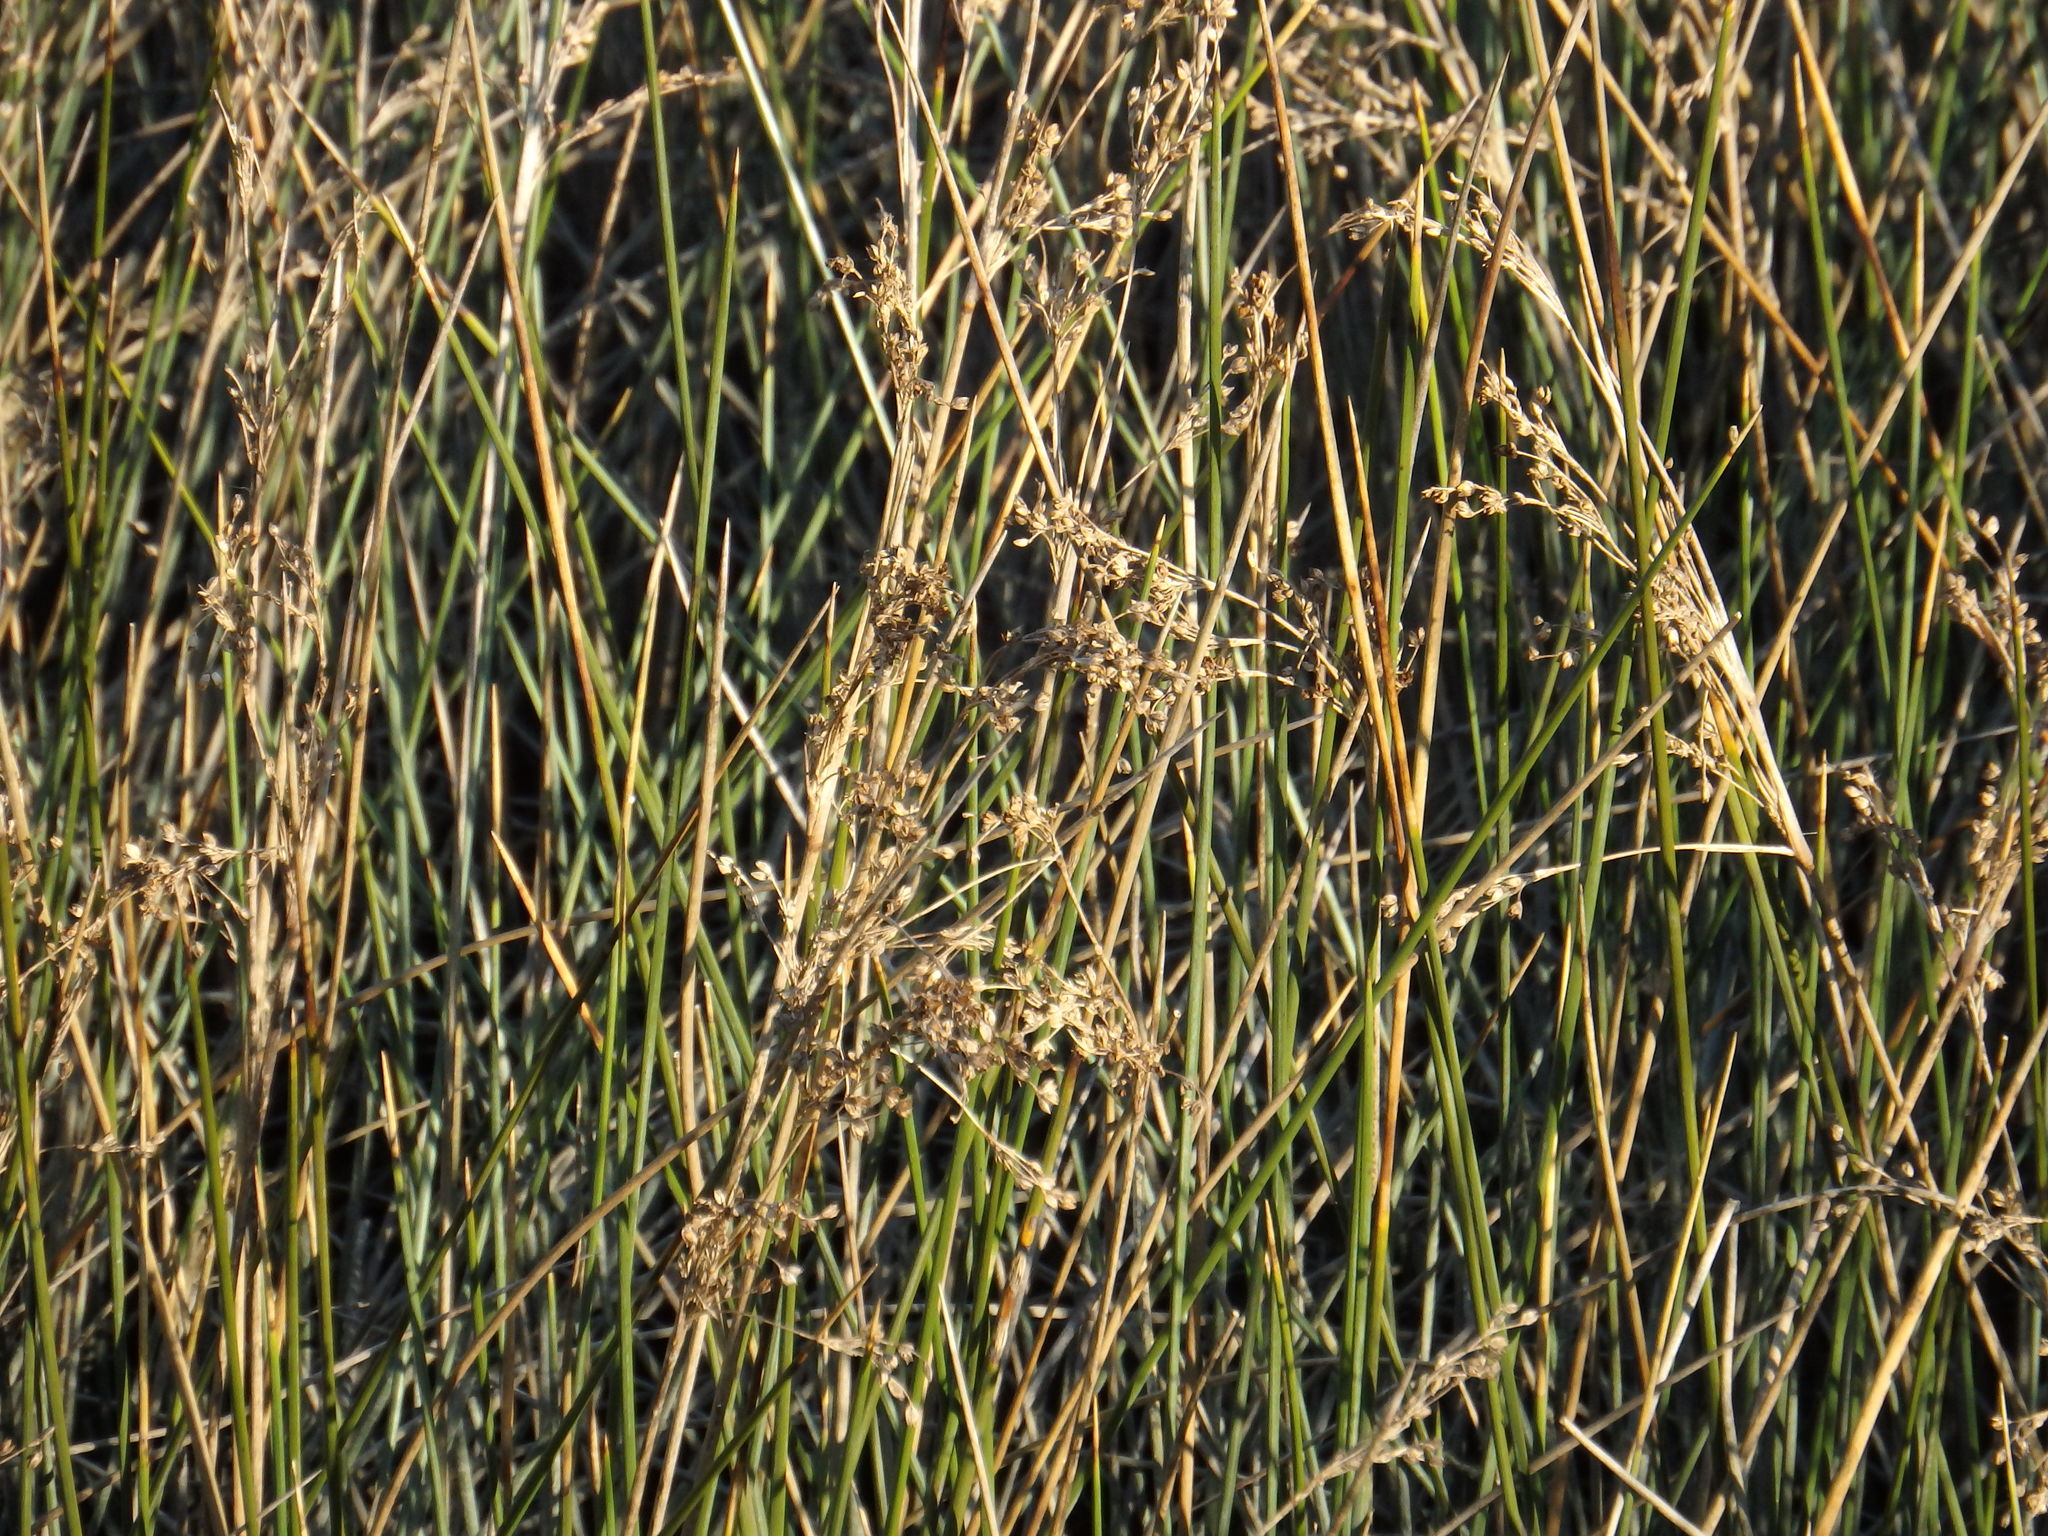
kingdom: Plantae
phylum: Tracheophyta
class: Liliopsida
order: Poales
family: Juncaceae
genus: Juncus
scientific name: Juncus maritimus
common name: Sea rush
